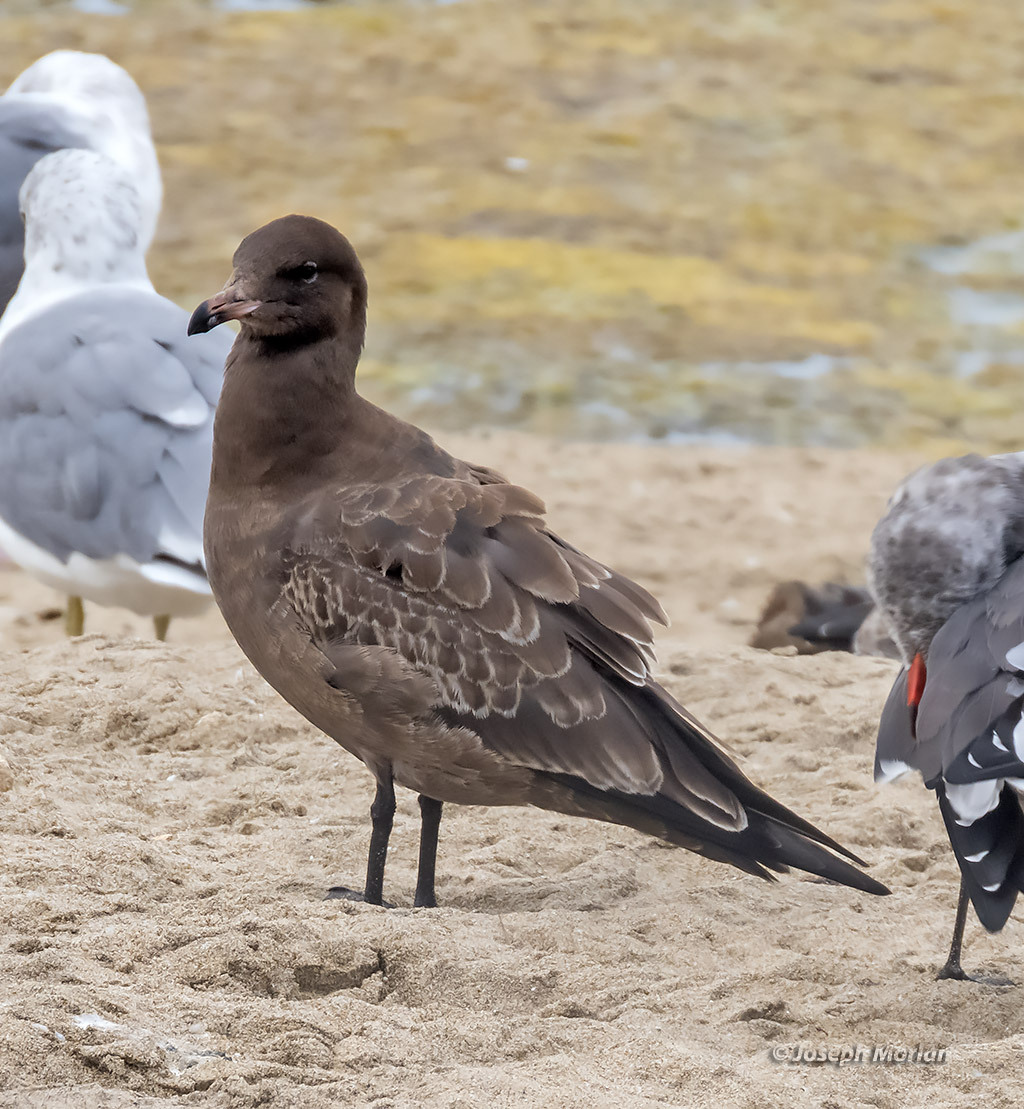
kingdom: Animalia
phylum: Chordata
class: Aves
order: Charadriiformes
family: Laridae
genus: Larus
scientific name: Larus heermanni
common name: Heermann's gull
